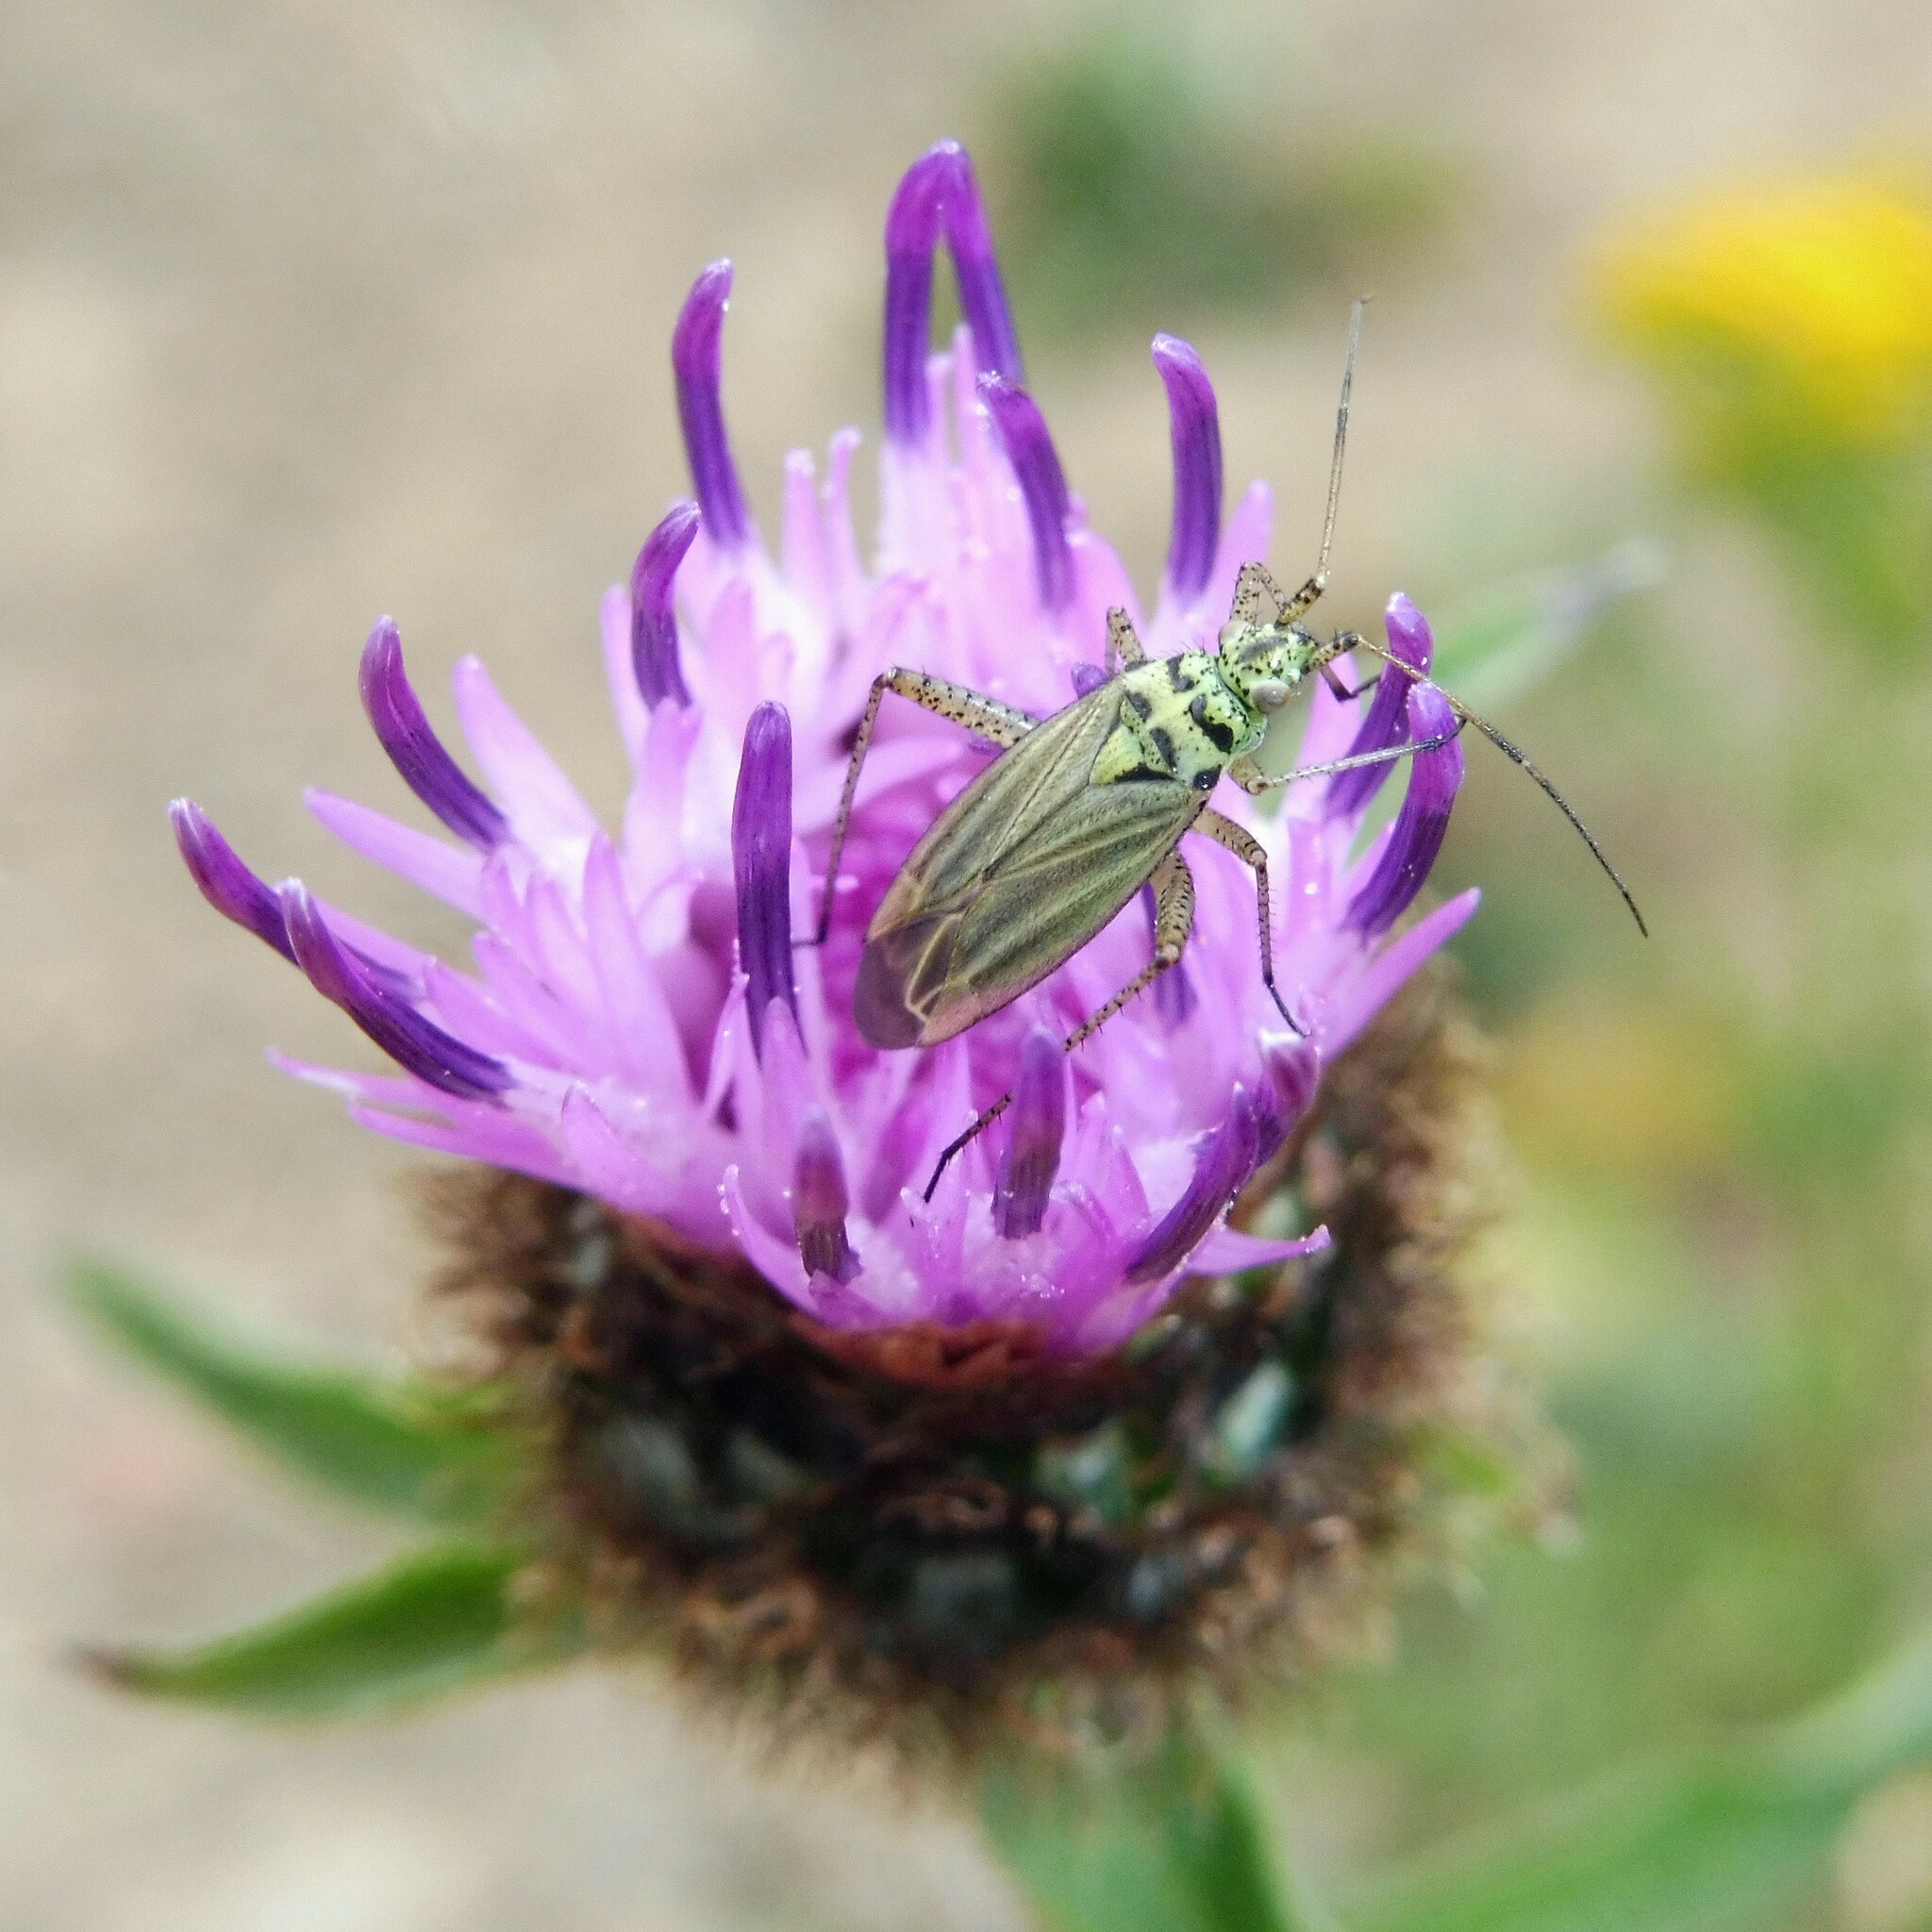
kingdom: Animalia
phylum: Arthropoda
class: Insecta
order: Hemiptera
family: Miridae
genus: Oncotylus
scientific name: Oncotylus viridiflavus
